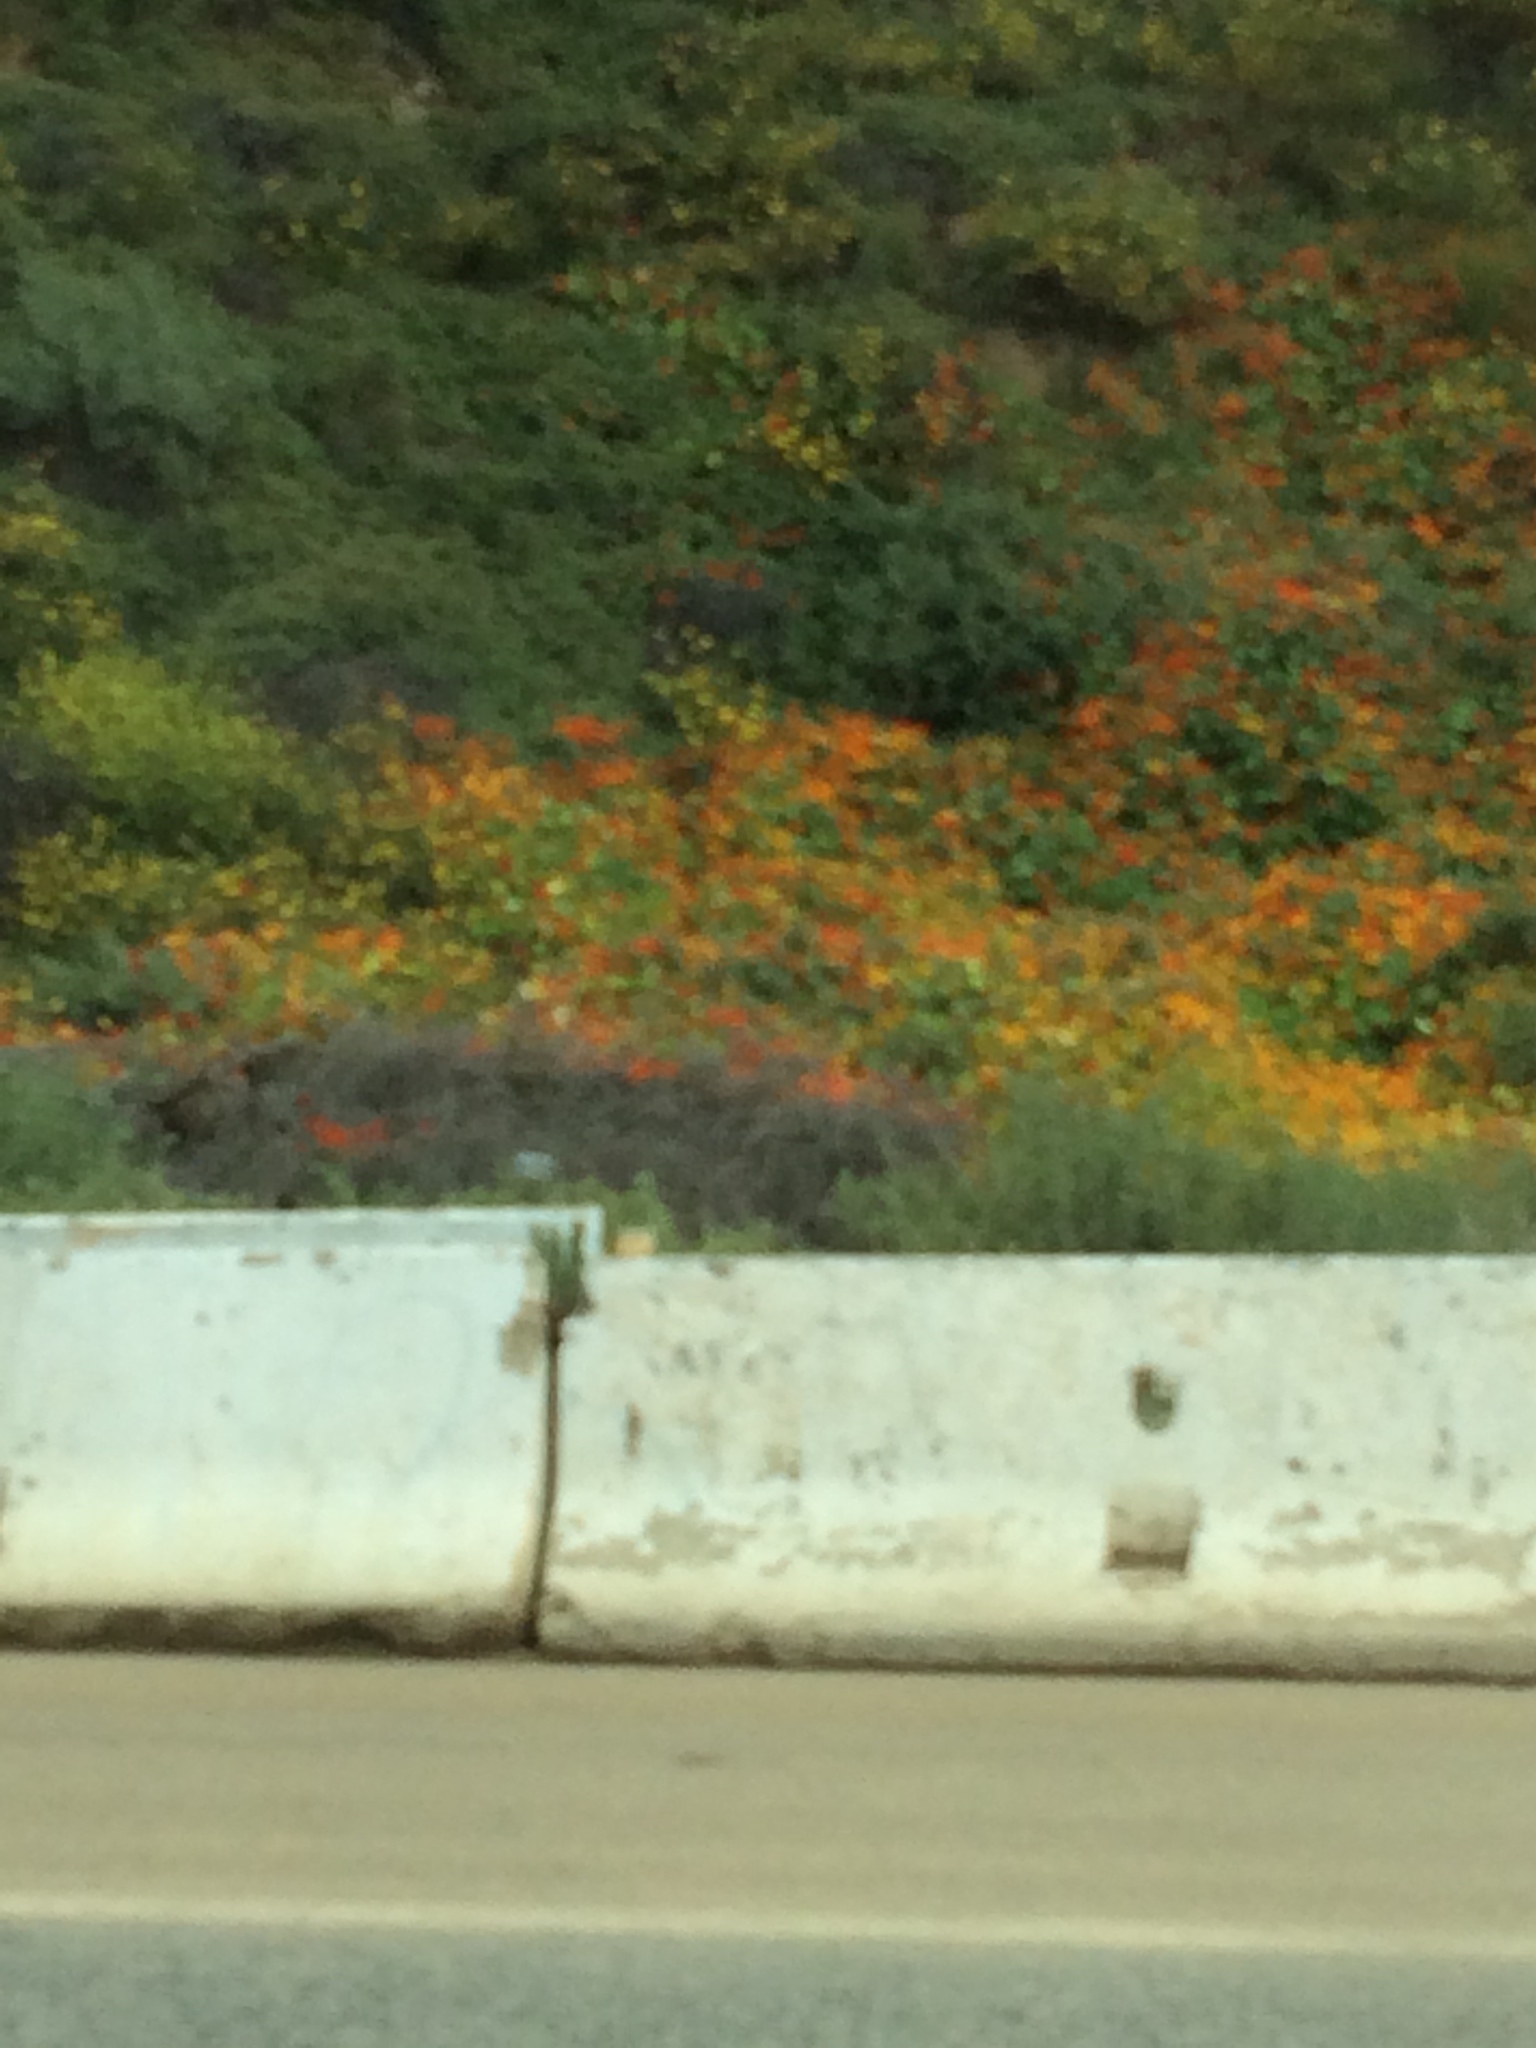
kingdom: Plantae
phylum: Tracheophyta
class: Magnoliopsida
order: Brassicales
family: Tropaeolaceae
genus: Tropaeolum
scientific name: Tropaeolum majus
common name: Nasturtium
